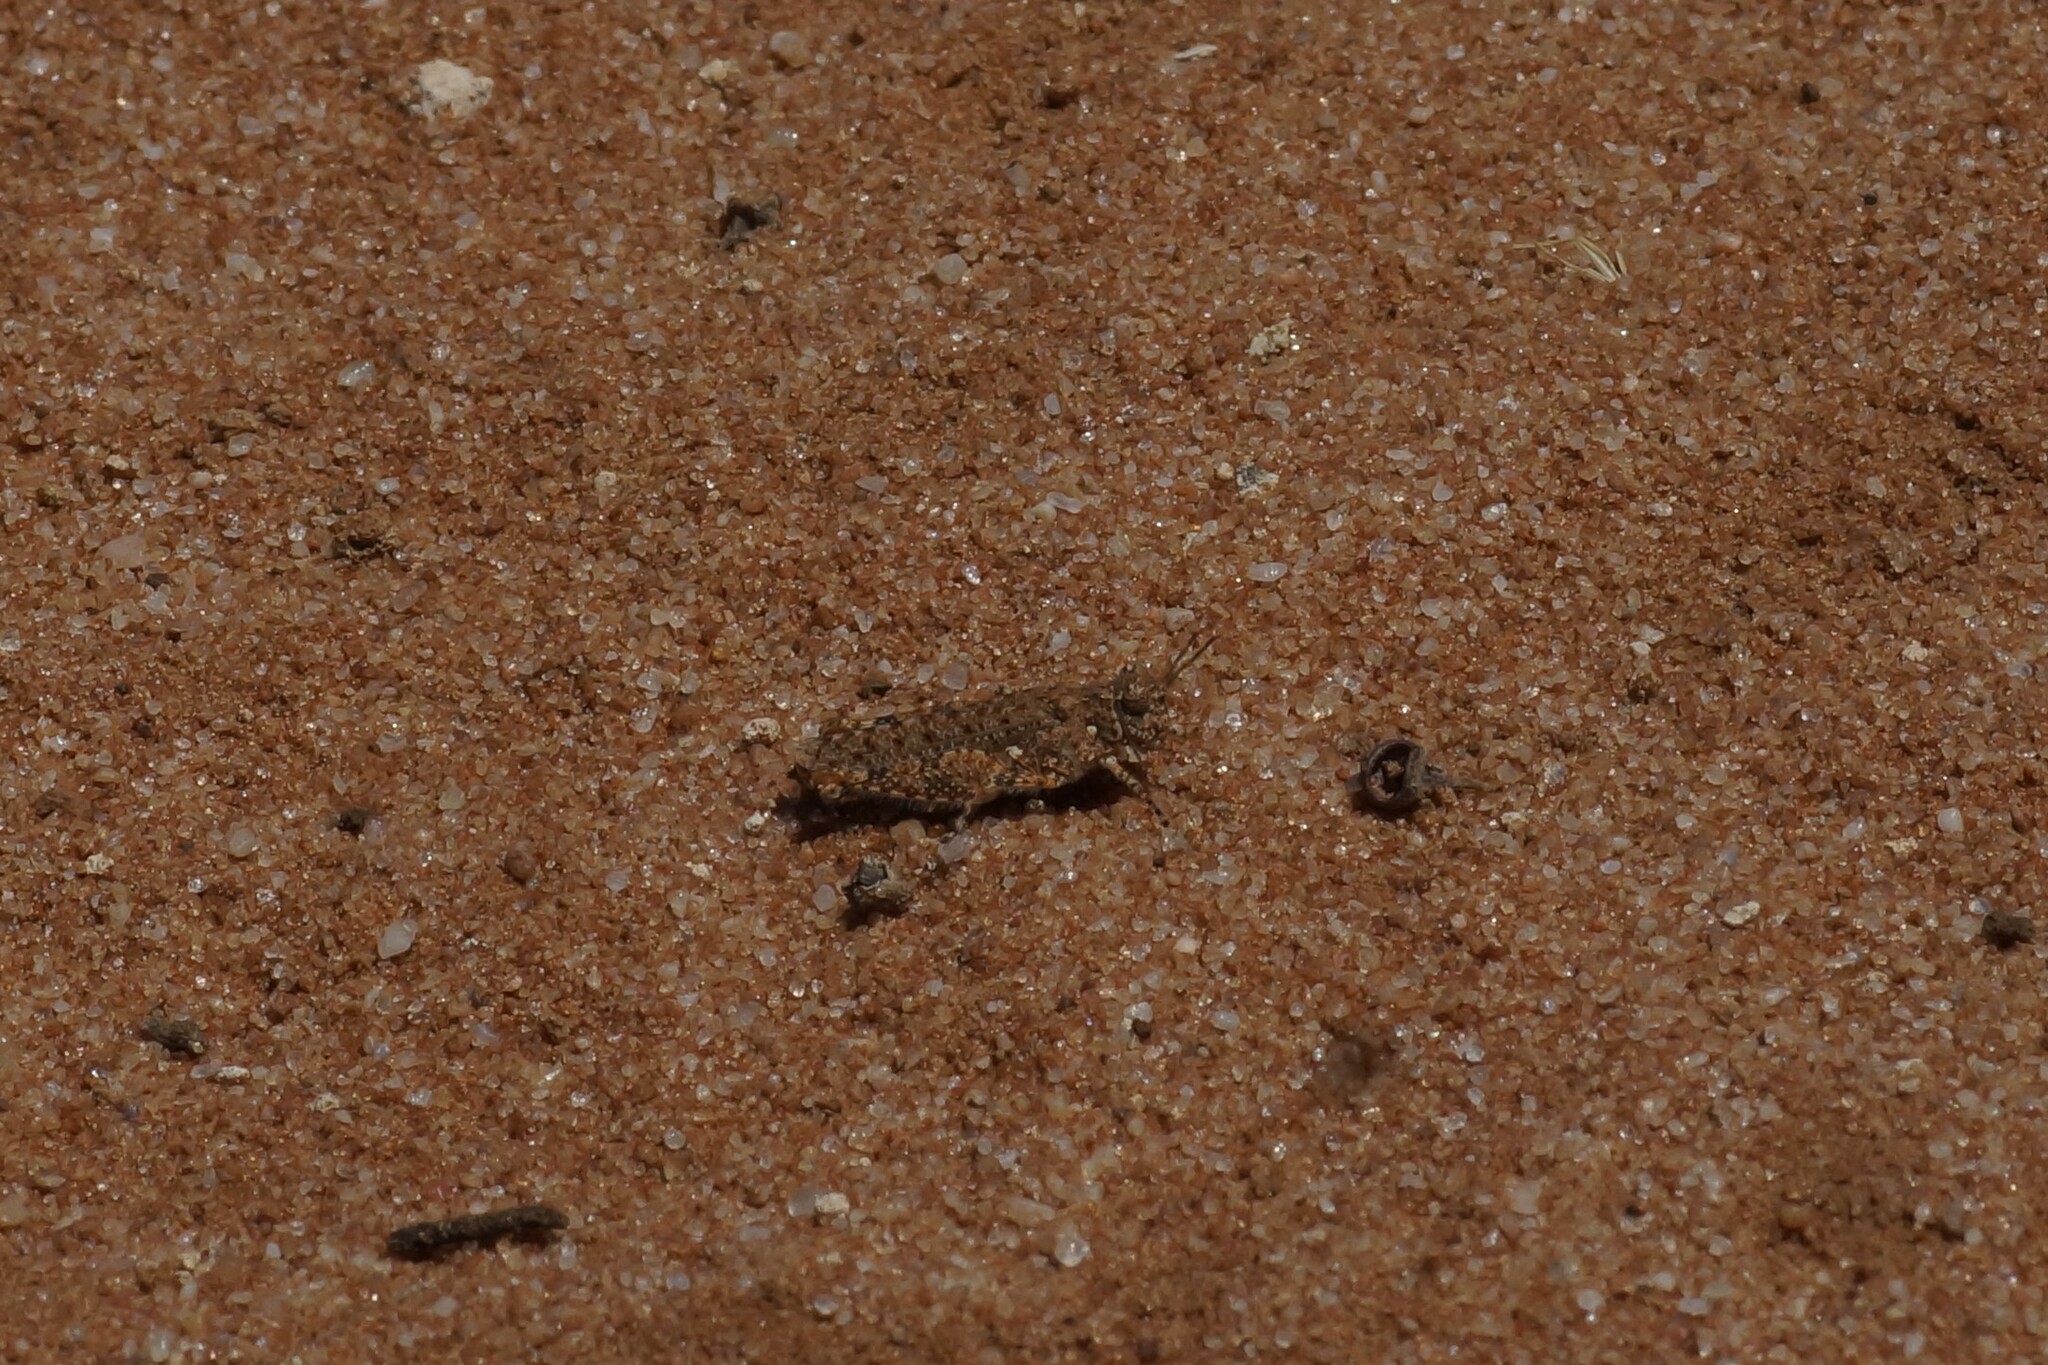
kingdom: Animalia
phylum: Arthropoda
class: Insecta
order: Orthoptera
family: Acrididae
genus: Tapesta
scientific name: Tapesta carneipes
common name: Blue-legged hairy grasshopper
